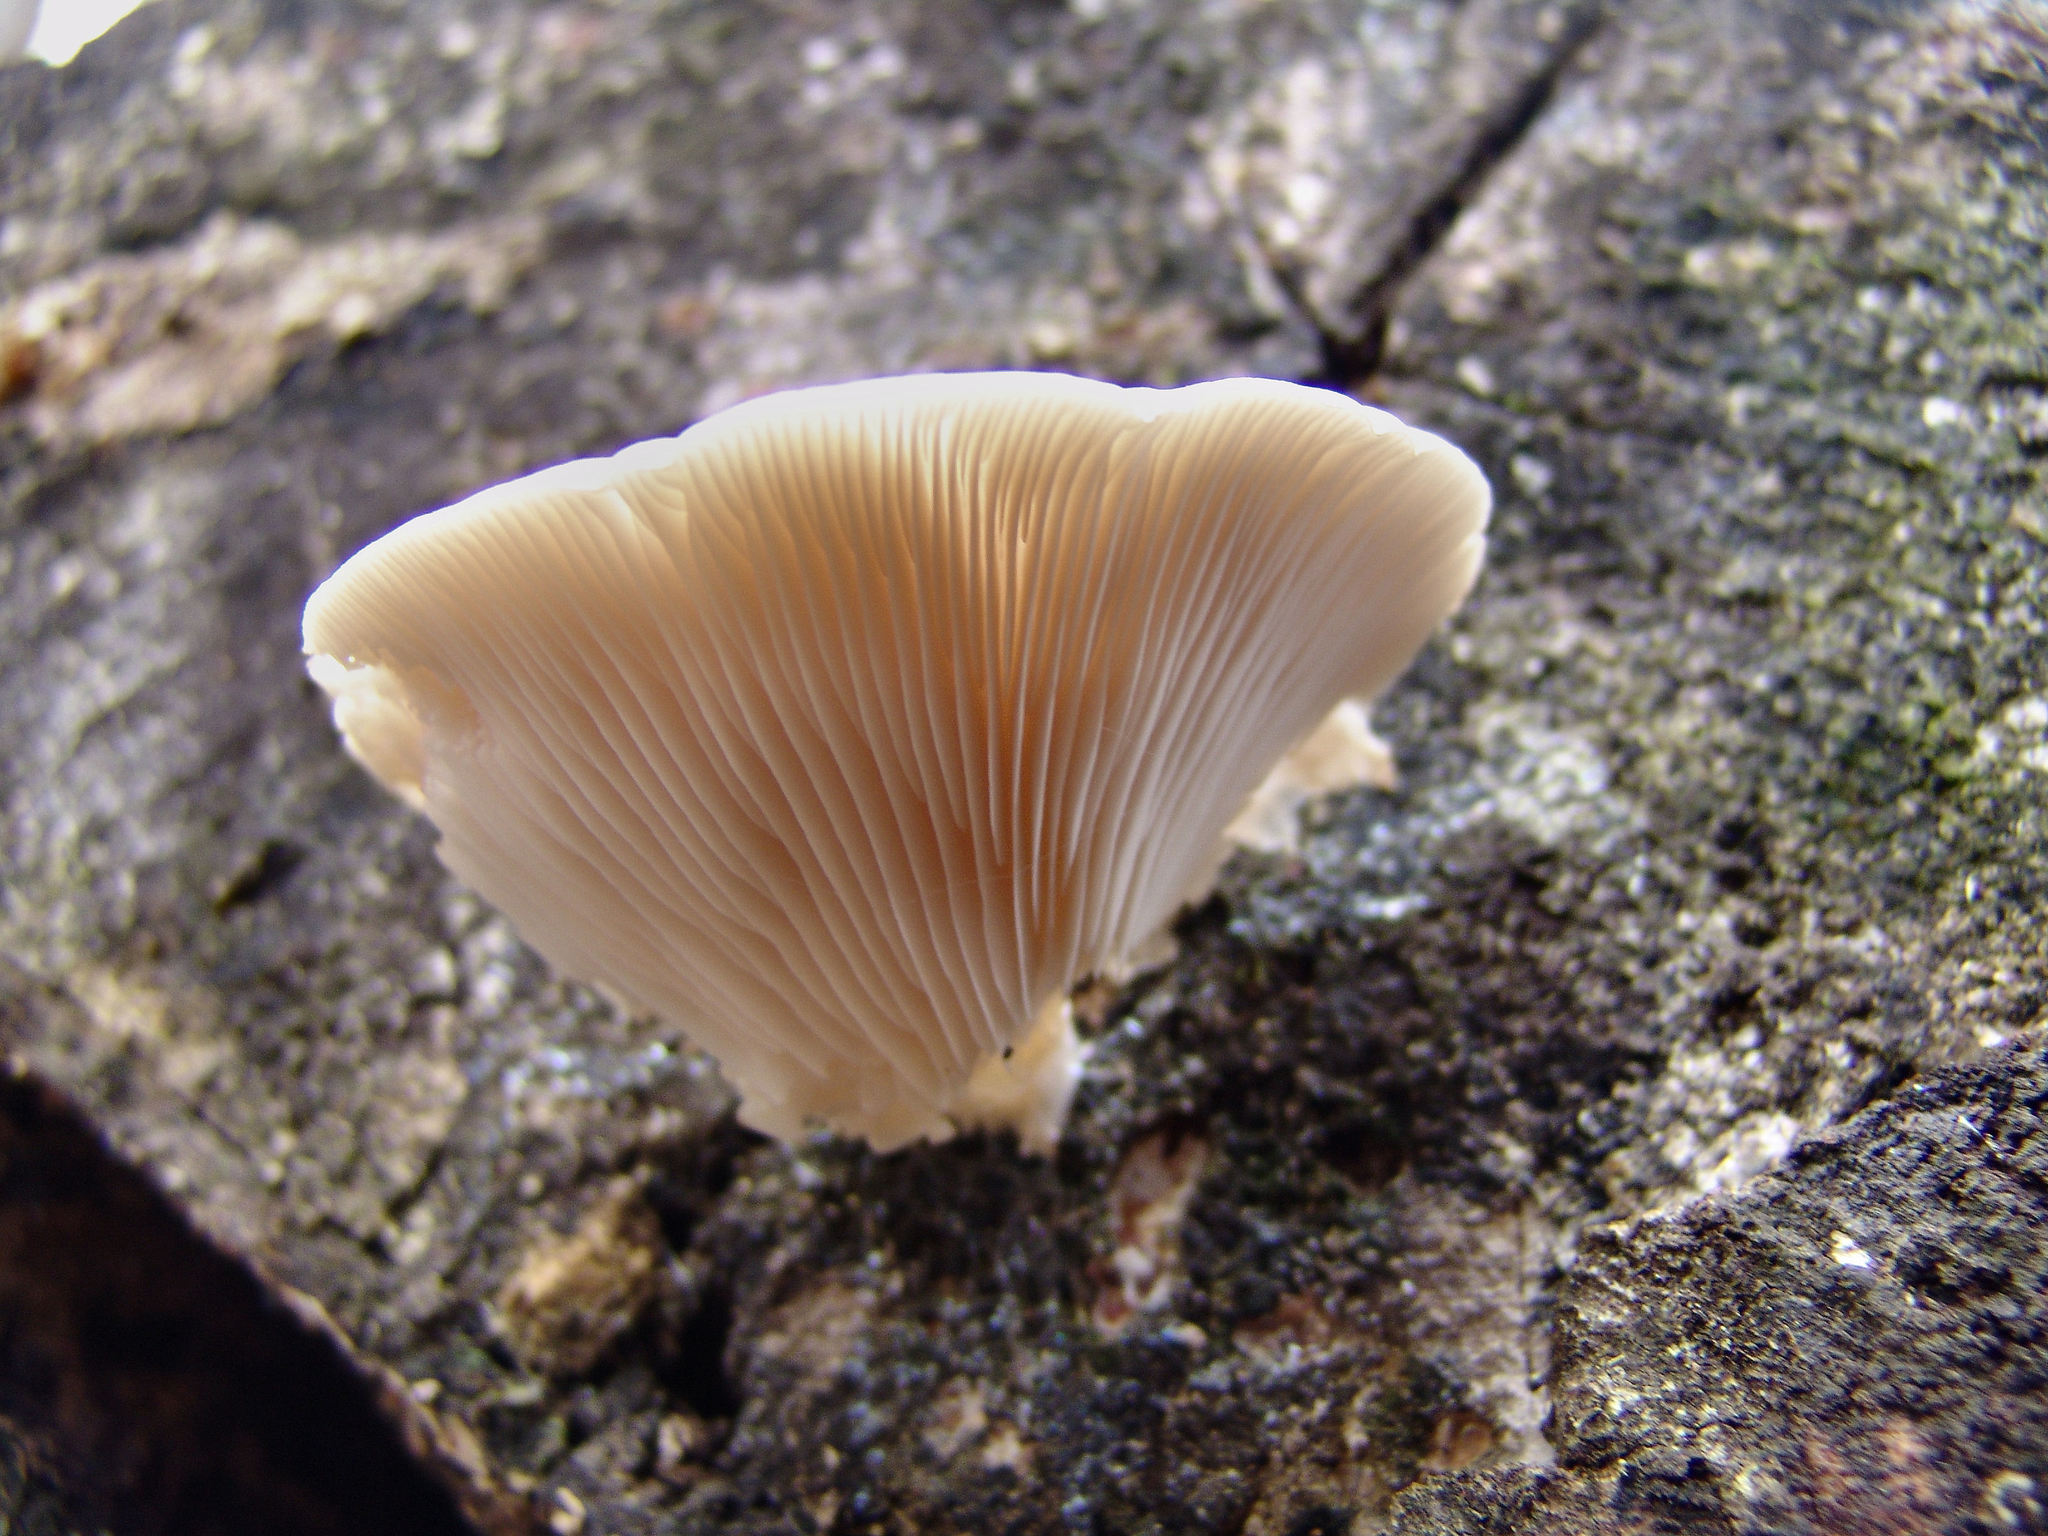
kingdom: Fungi
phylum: Basidiomycota
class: Agaricomycetes
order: Agaricales
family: Pleurotaceae
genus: Pleurotus
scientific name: Pleurotus ostreatus
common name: Oyster mushroom
